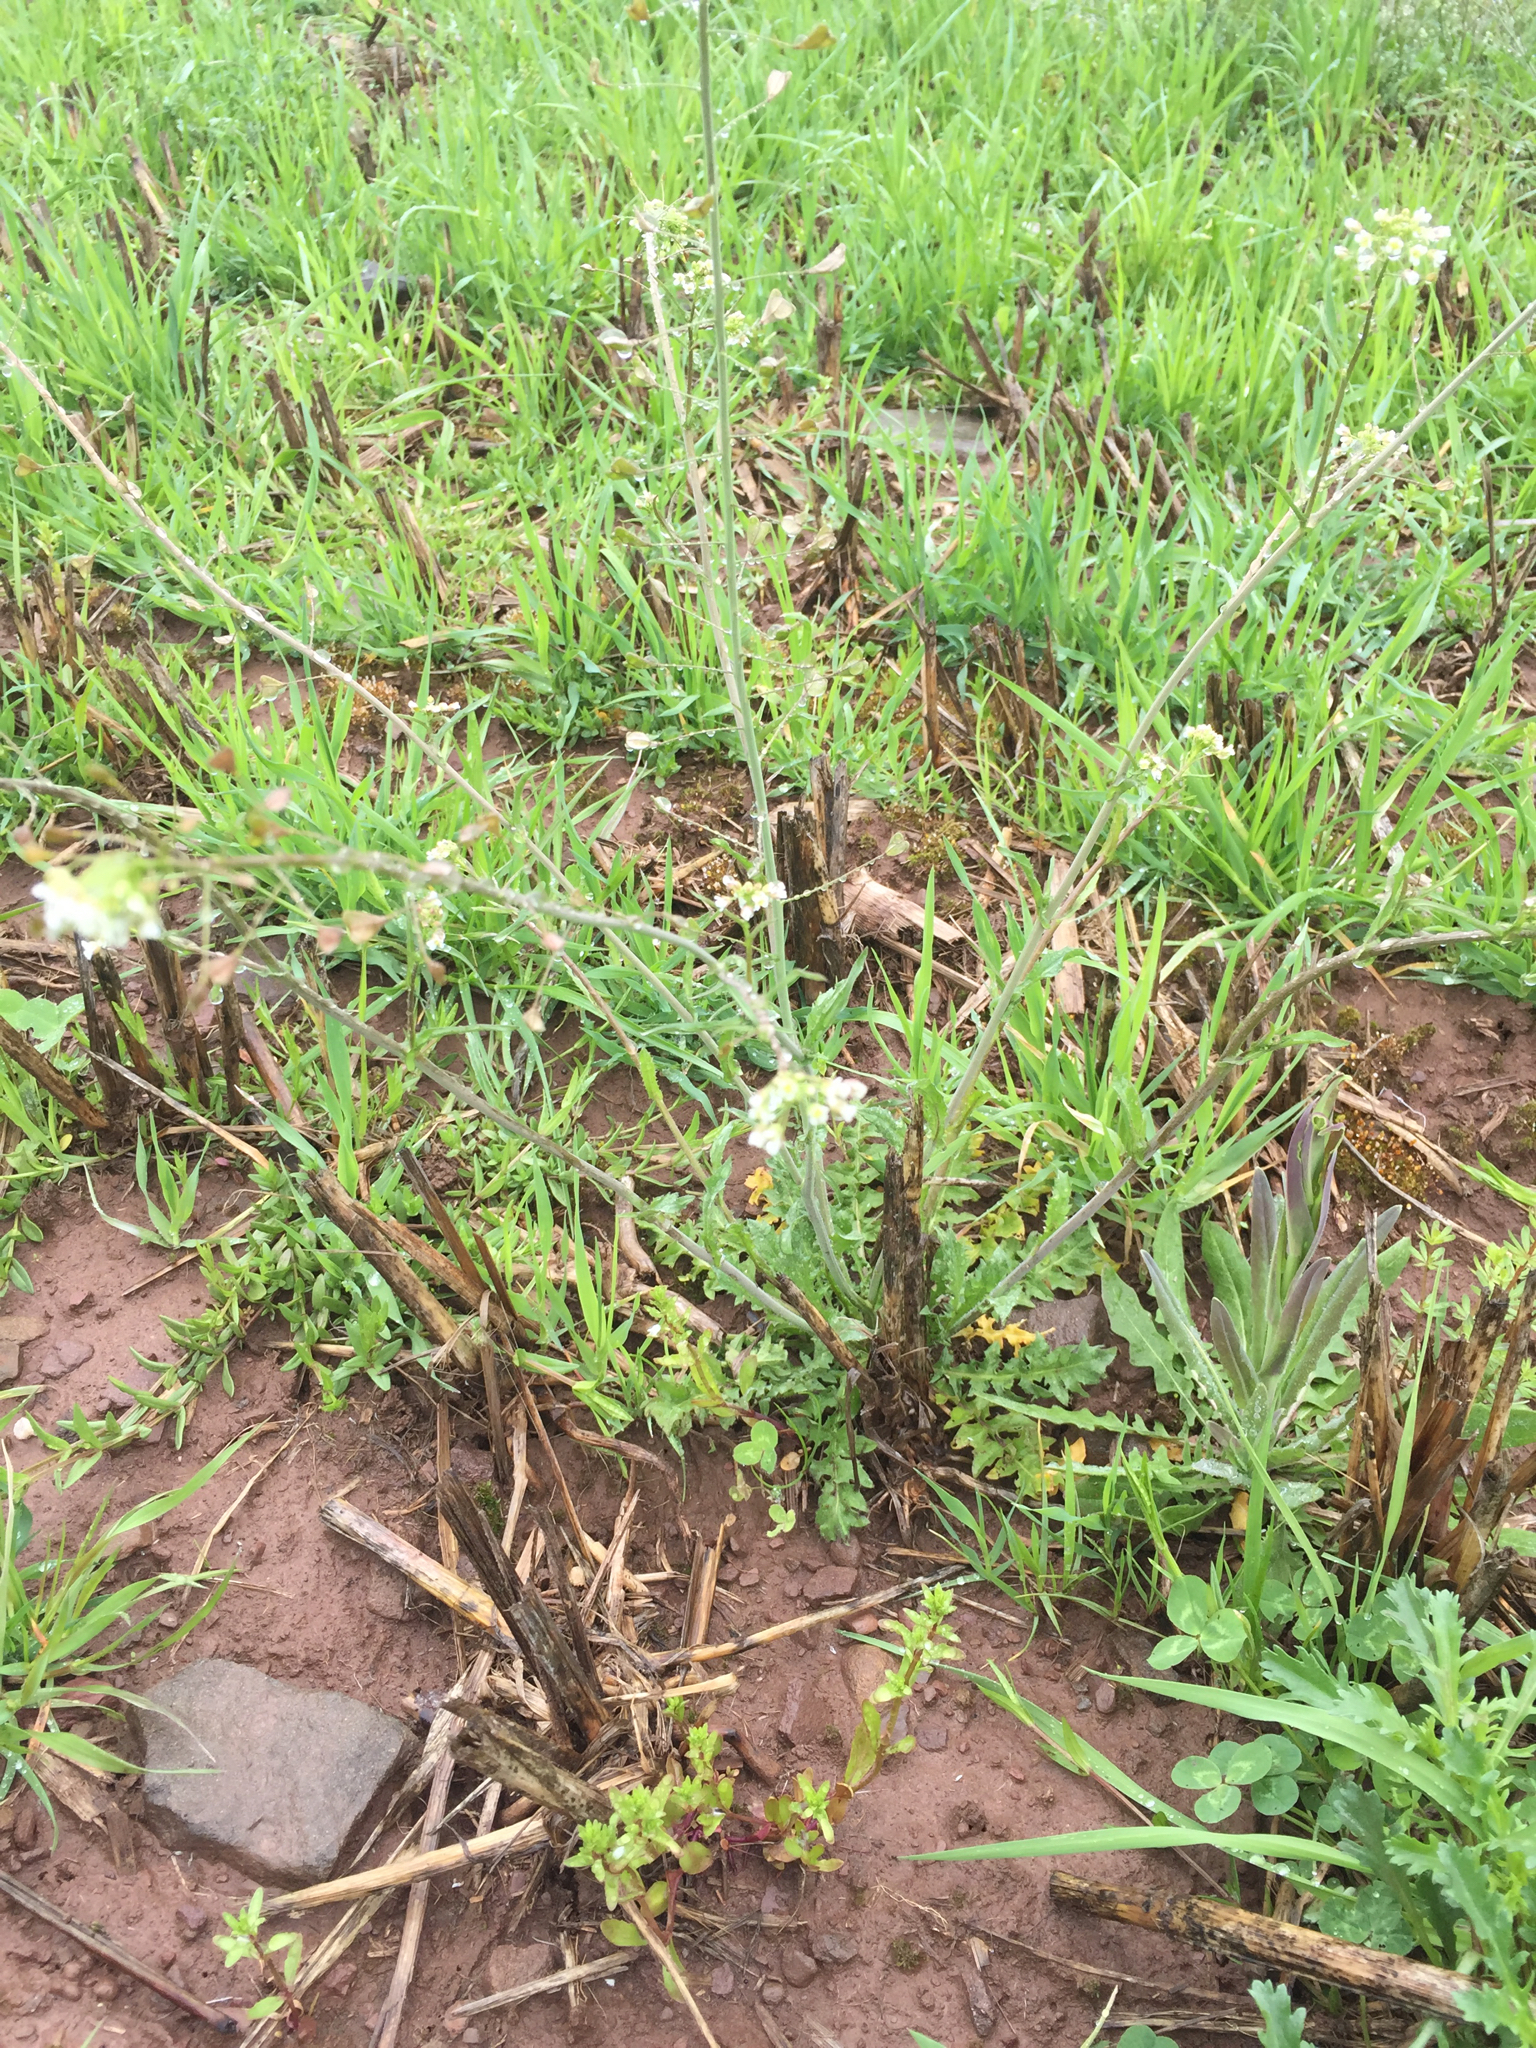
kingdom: Plantae
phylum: Tracheophyta
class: Magnoliopsida
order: Brassicales
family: Brassicaceae
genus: Capsella
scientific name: Capsella bursa-pastoris
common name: Shepherd's purse
